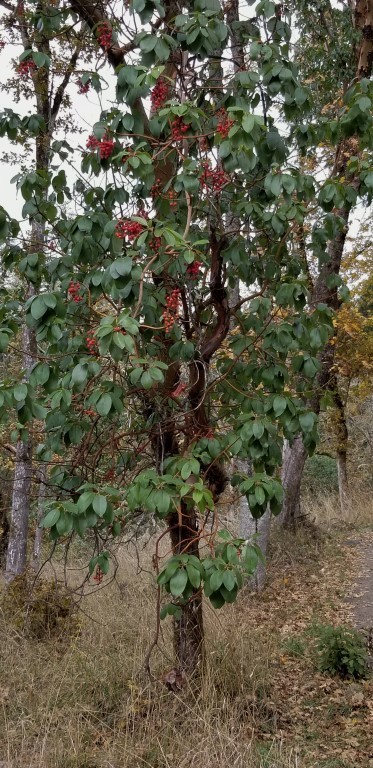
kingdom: Plantae
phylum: Tracheophyta
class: Magnoliopsida
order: Ericales
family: Ericaceae
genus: Arbutus
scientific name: Arbutus menziesii
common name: Pacific madrone
